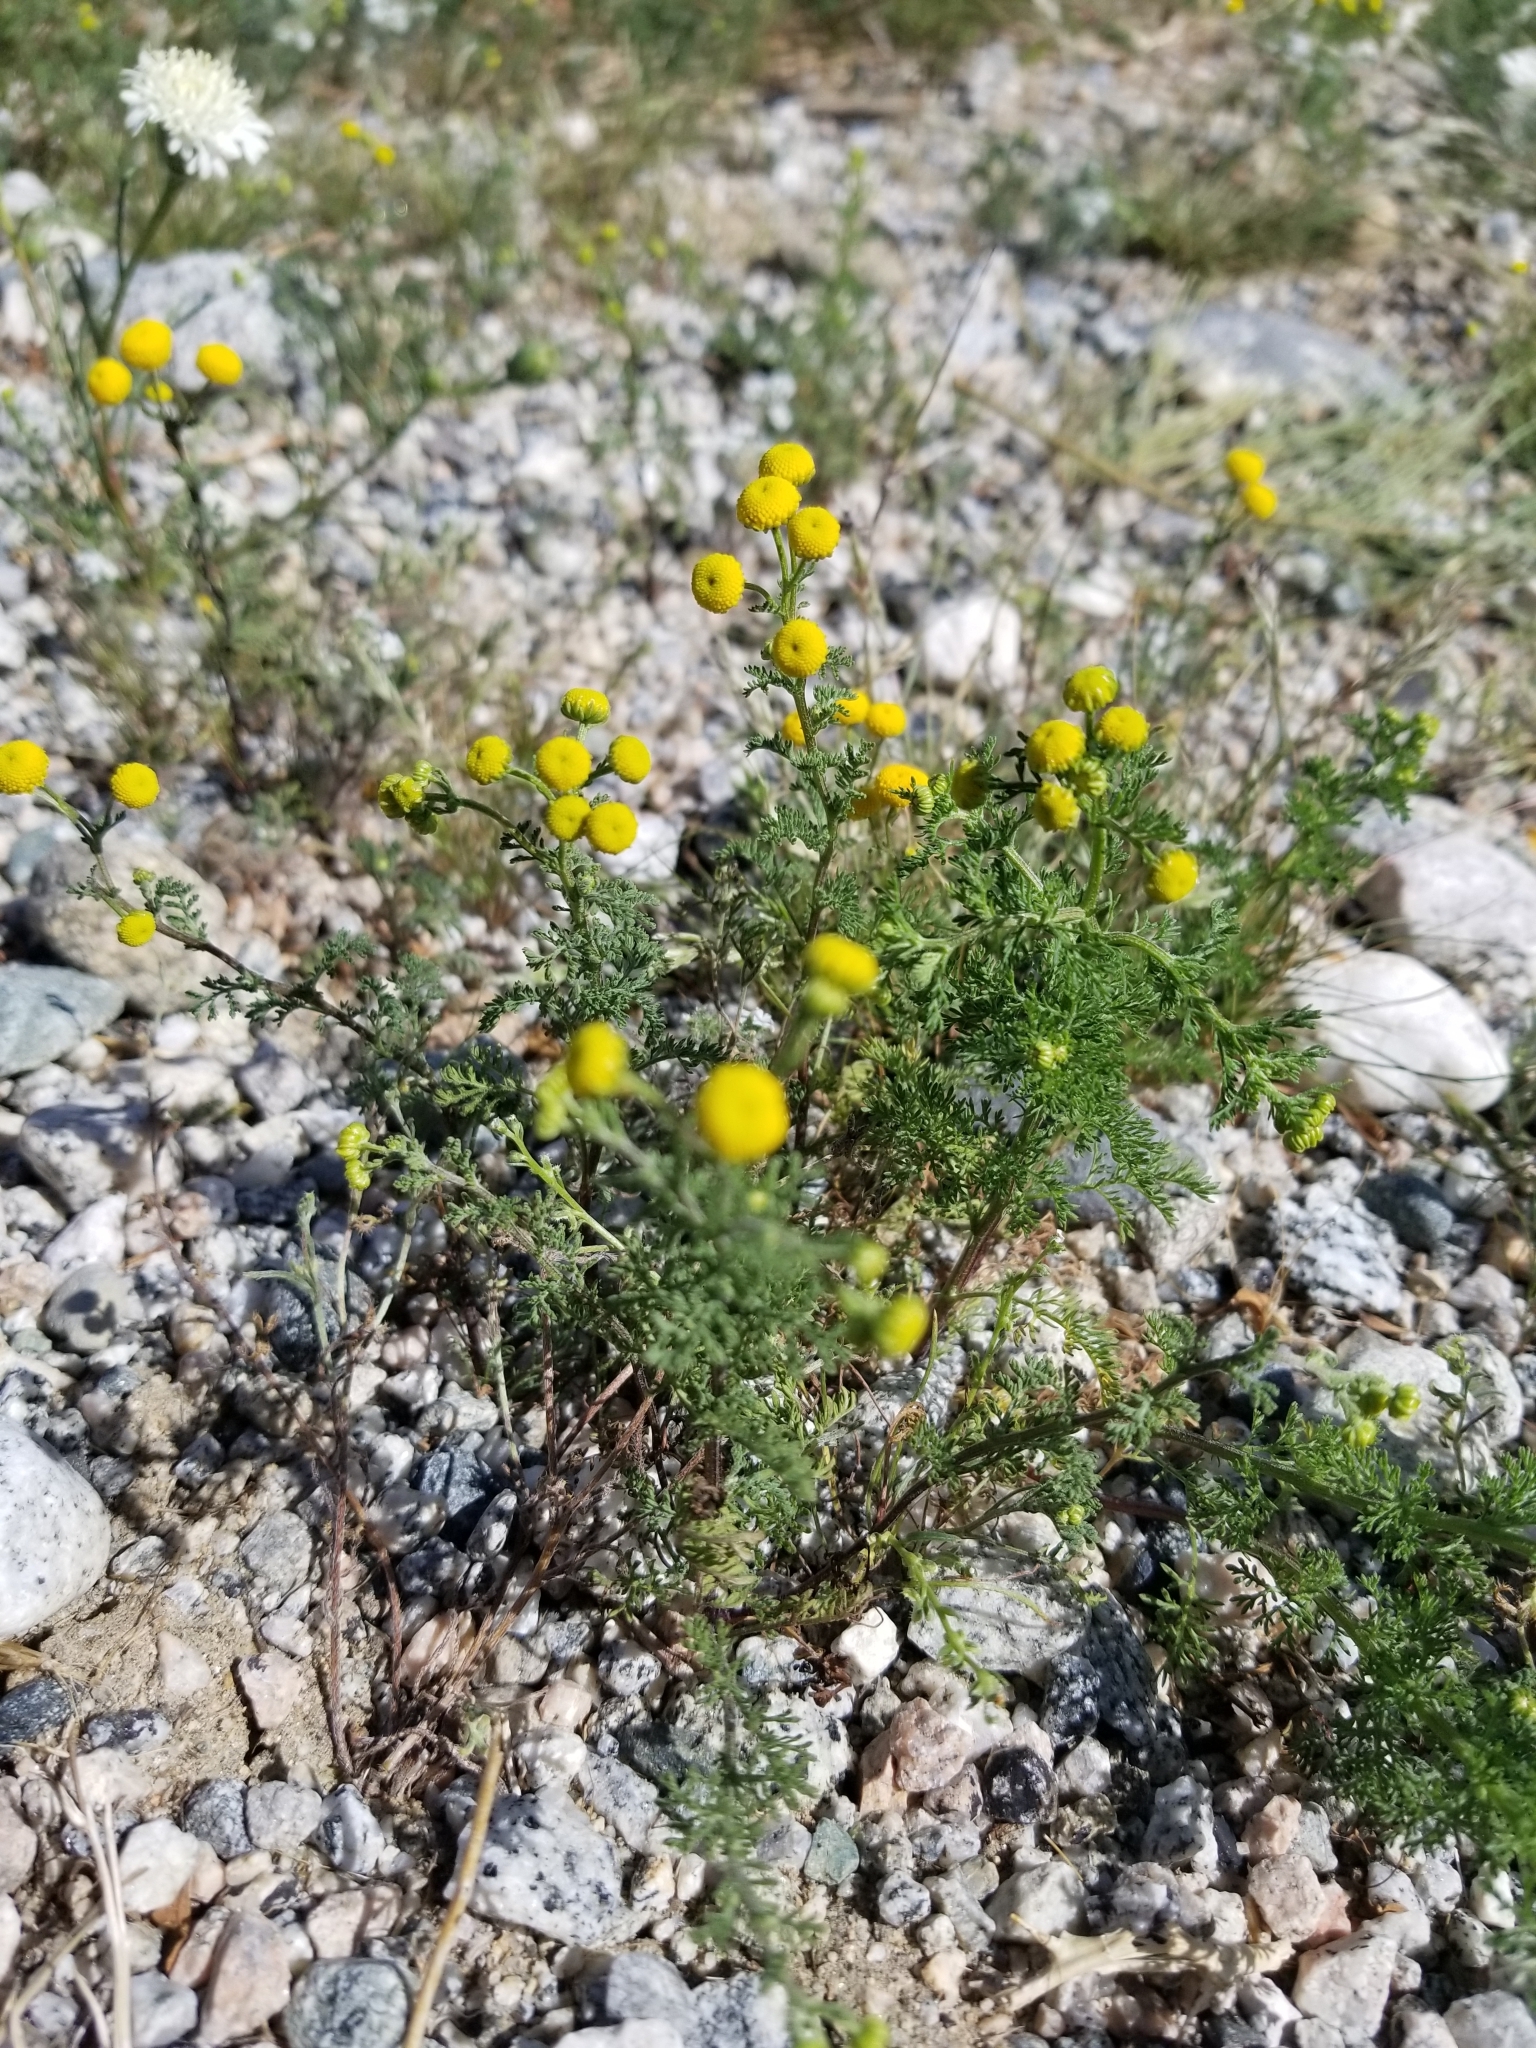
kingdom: Plantae
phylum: Tracheophyta
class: Magnoliopsida
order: Asterales
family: Asteraceae
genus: Oncosiphon
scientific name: Oncosiphon pilulifer
